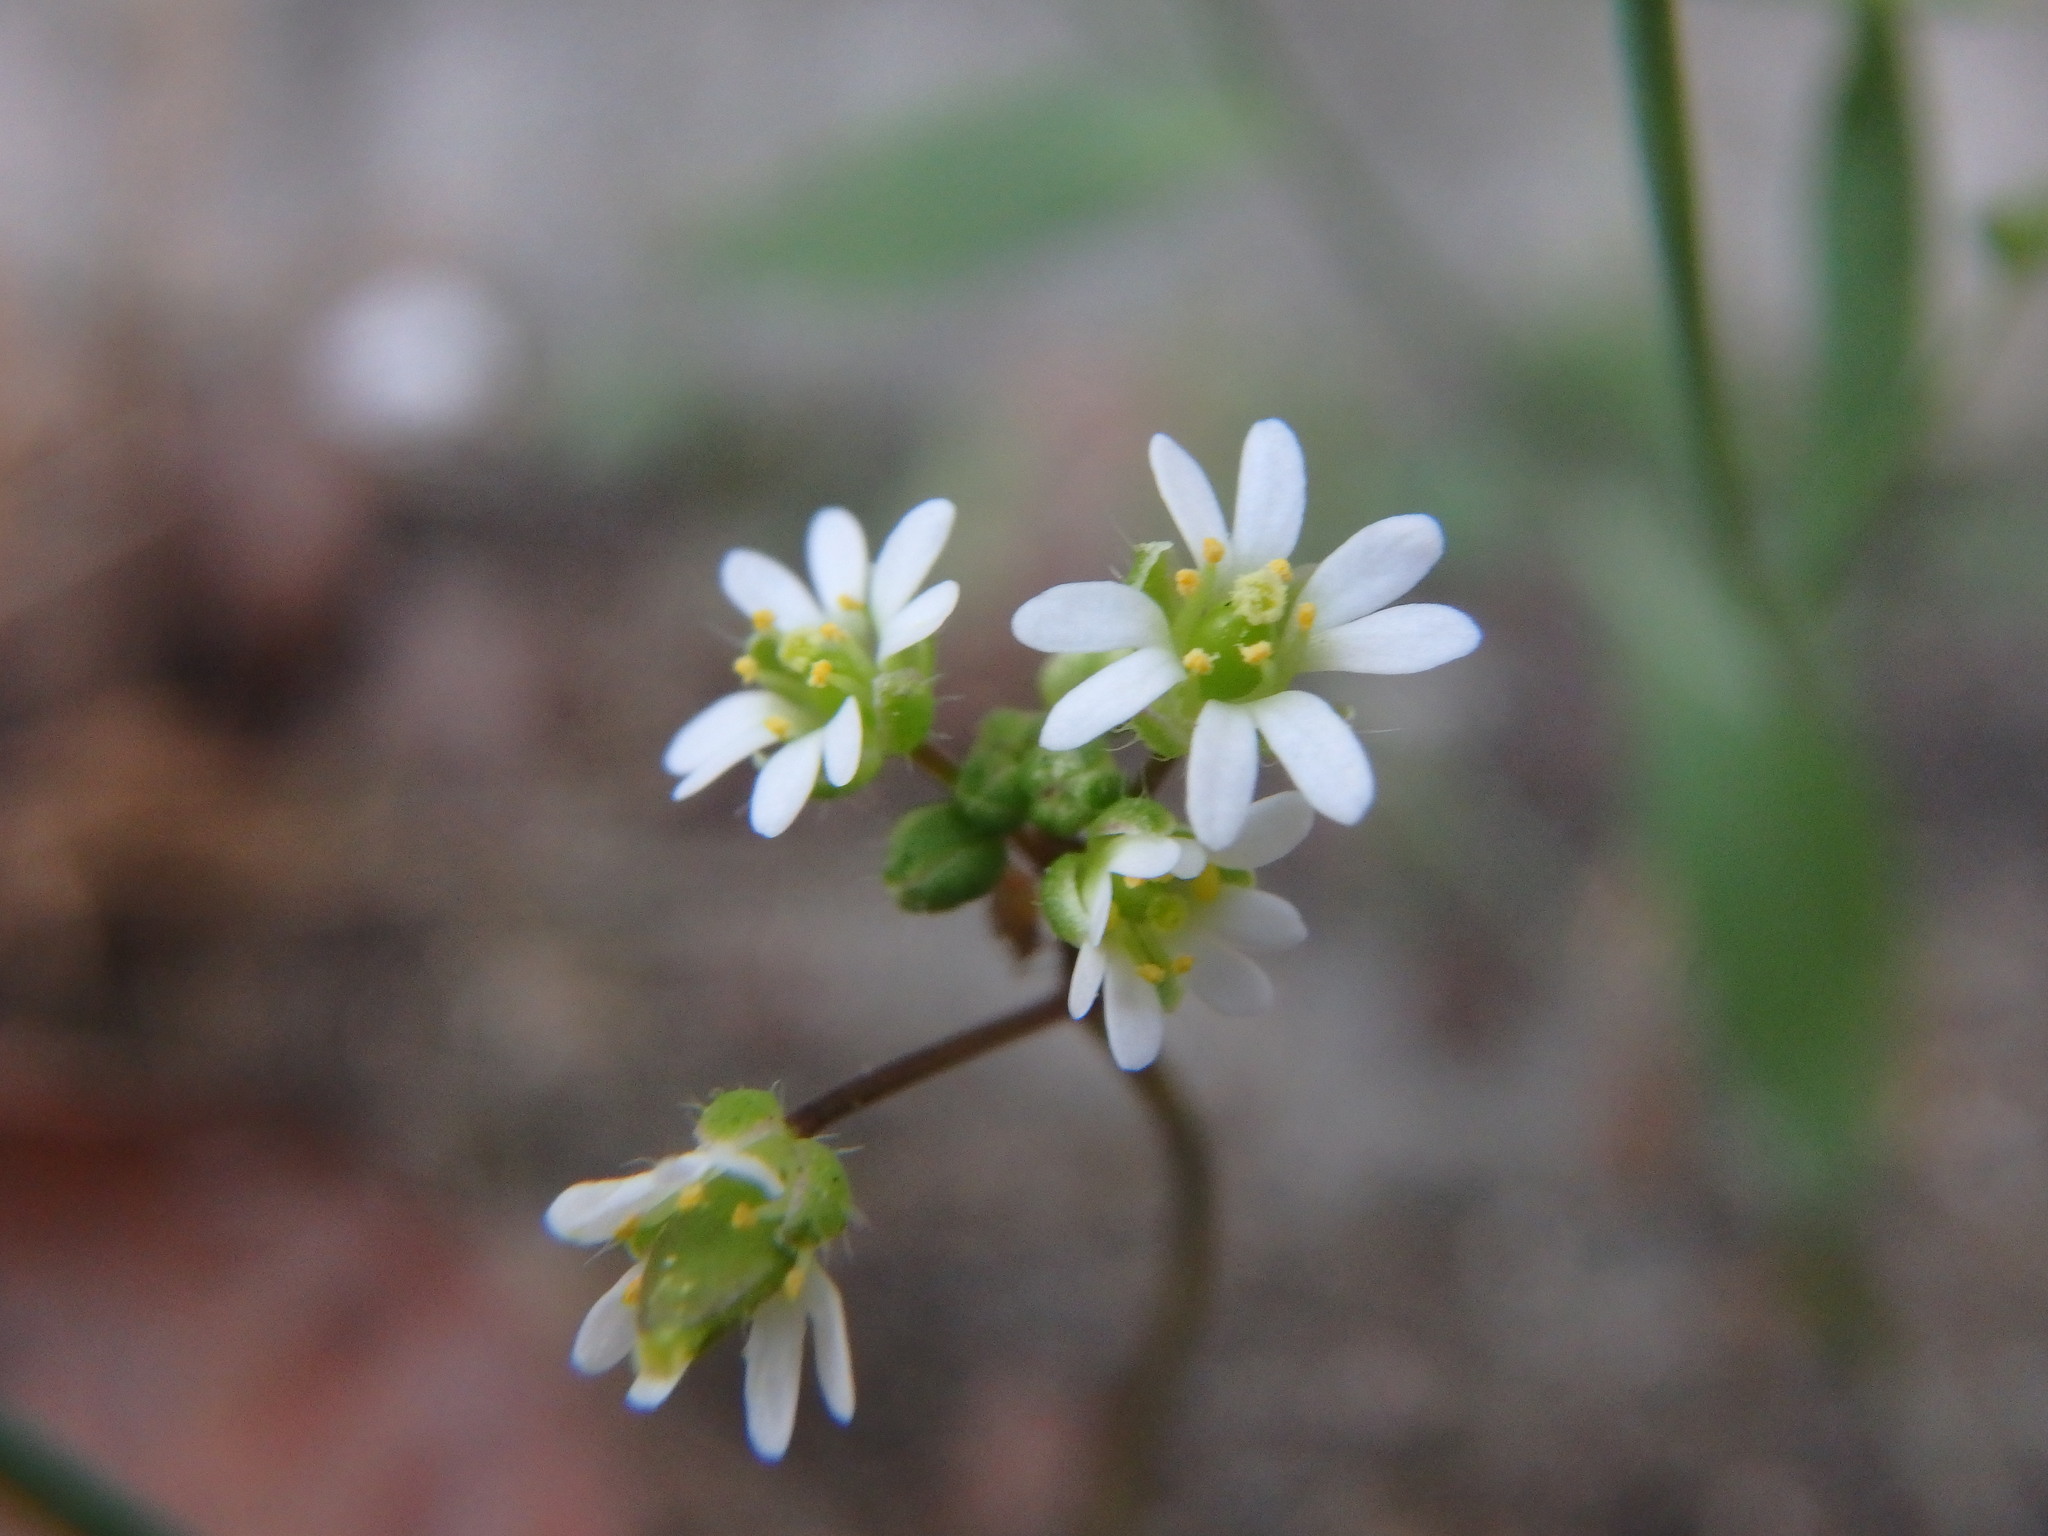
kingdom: Plantae
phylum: Tracheophyta
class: Magnoliopsida
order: Brassicales
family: Brassicaceae
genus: Draba
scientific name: Draba verna
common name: Spring draba
